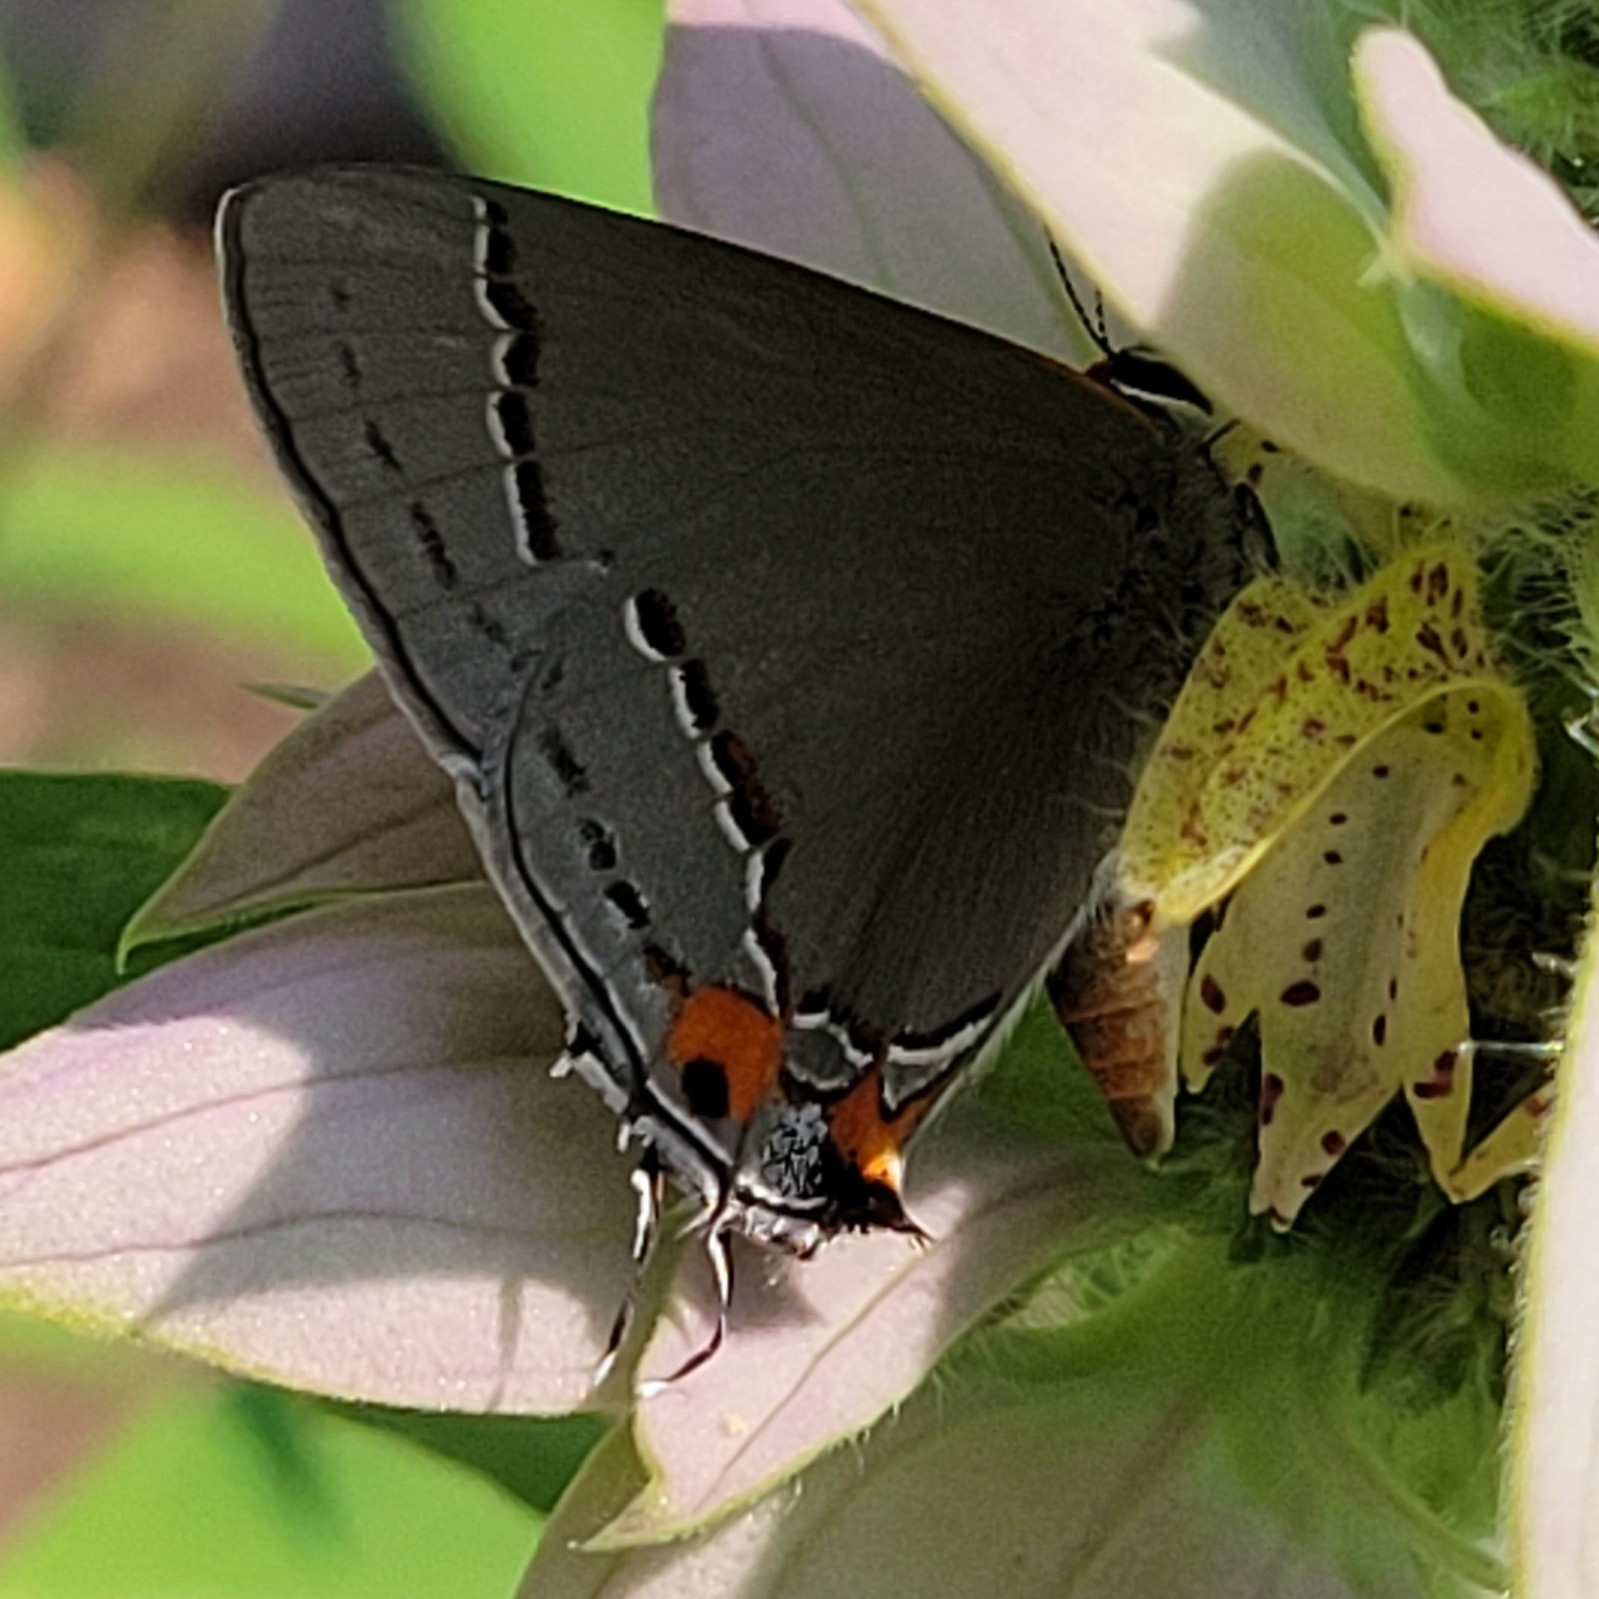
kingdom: Animalia
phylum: Arthropoda
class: Insecta
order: Lepidoptera
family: Lycaenidae
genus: Strymon
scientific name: Strymon melinus
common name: Gray hairstreak
